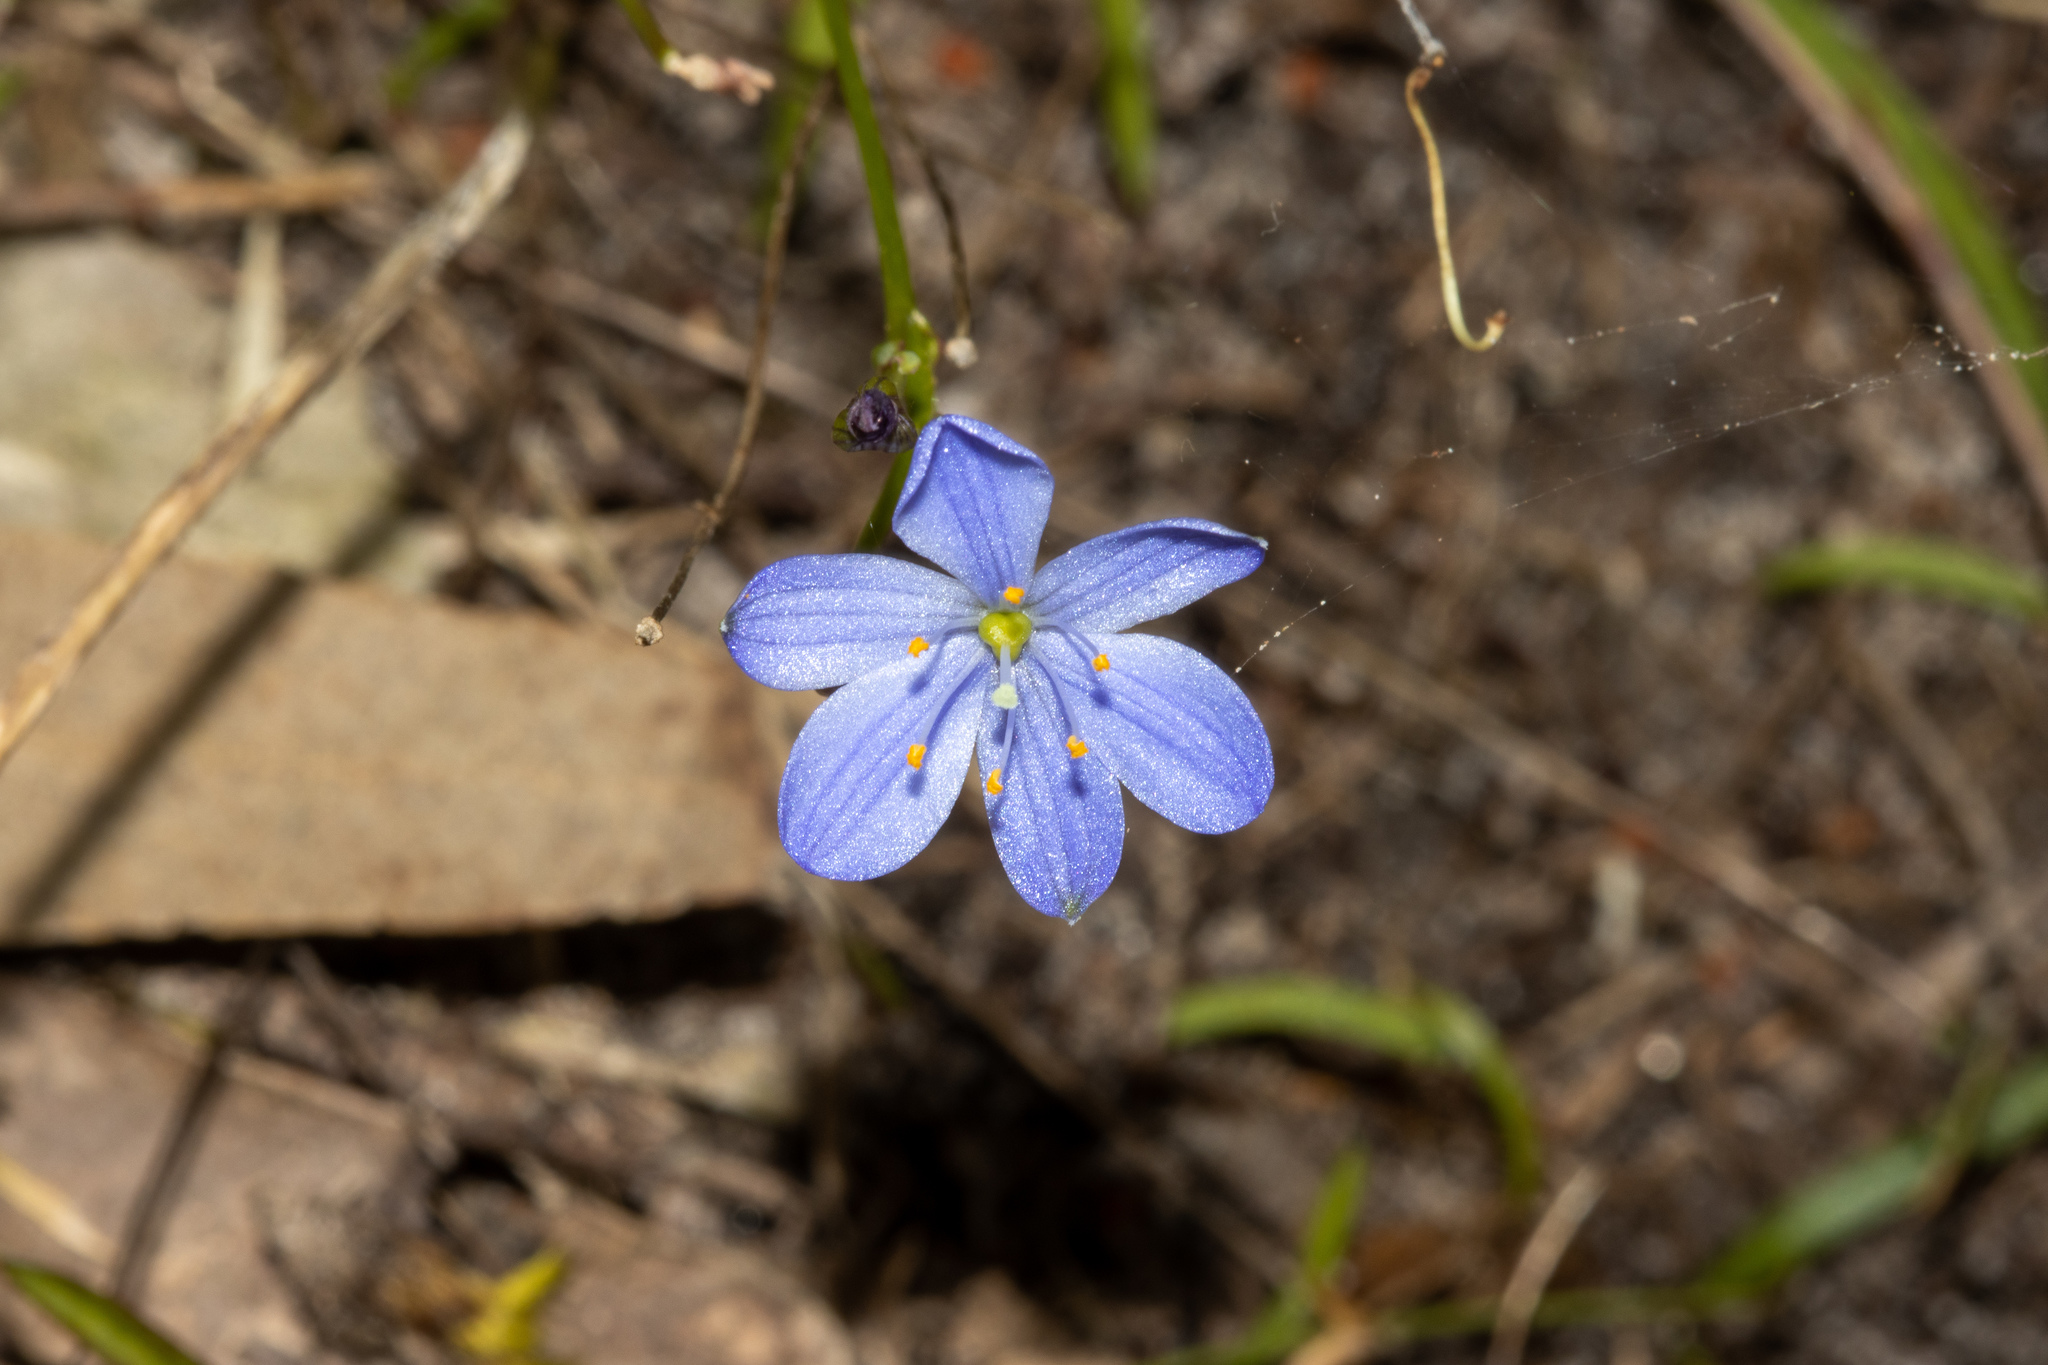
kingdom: Plantae
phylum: Tracheophyta
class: Liliopsida
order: Asparagales
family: Asphodelaceae
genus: Chamaescilla
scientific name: Chamaescilla corymbosa
